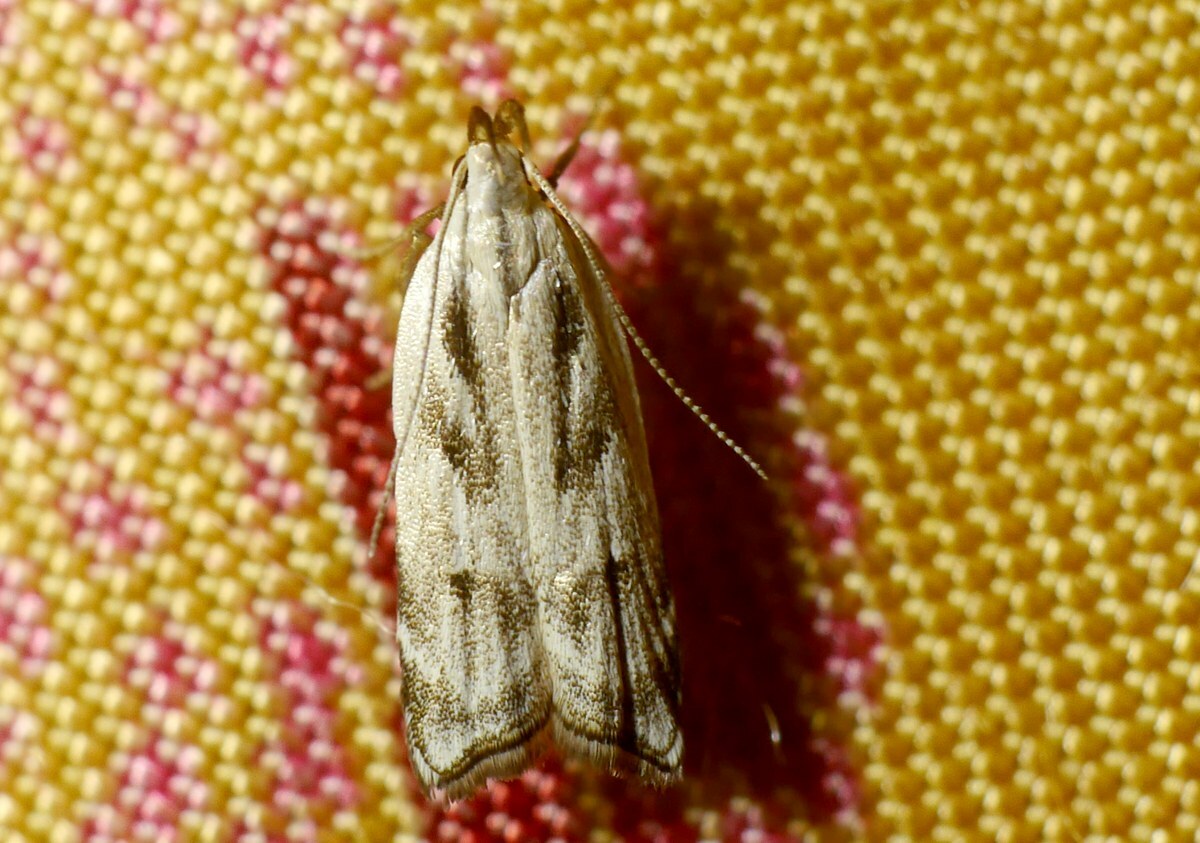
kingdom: Animalia
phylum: Arthropoda
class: Insecta
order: Lepidoptera
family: Gelechiidae
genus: Dichomeris
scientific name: Dichomeris rasilella
